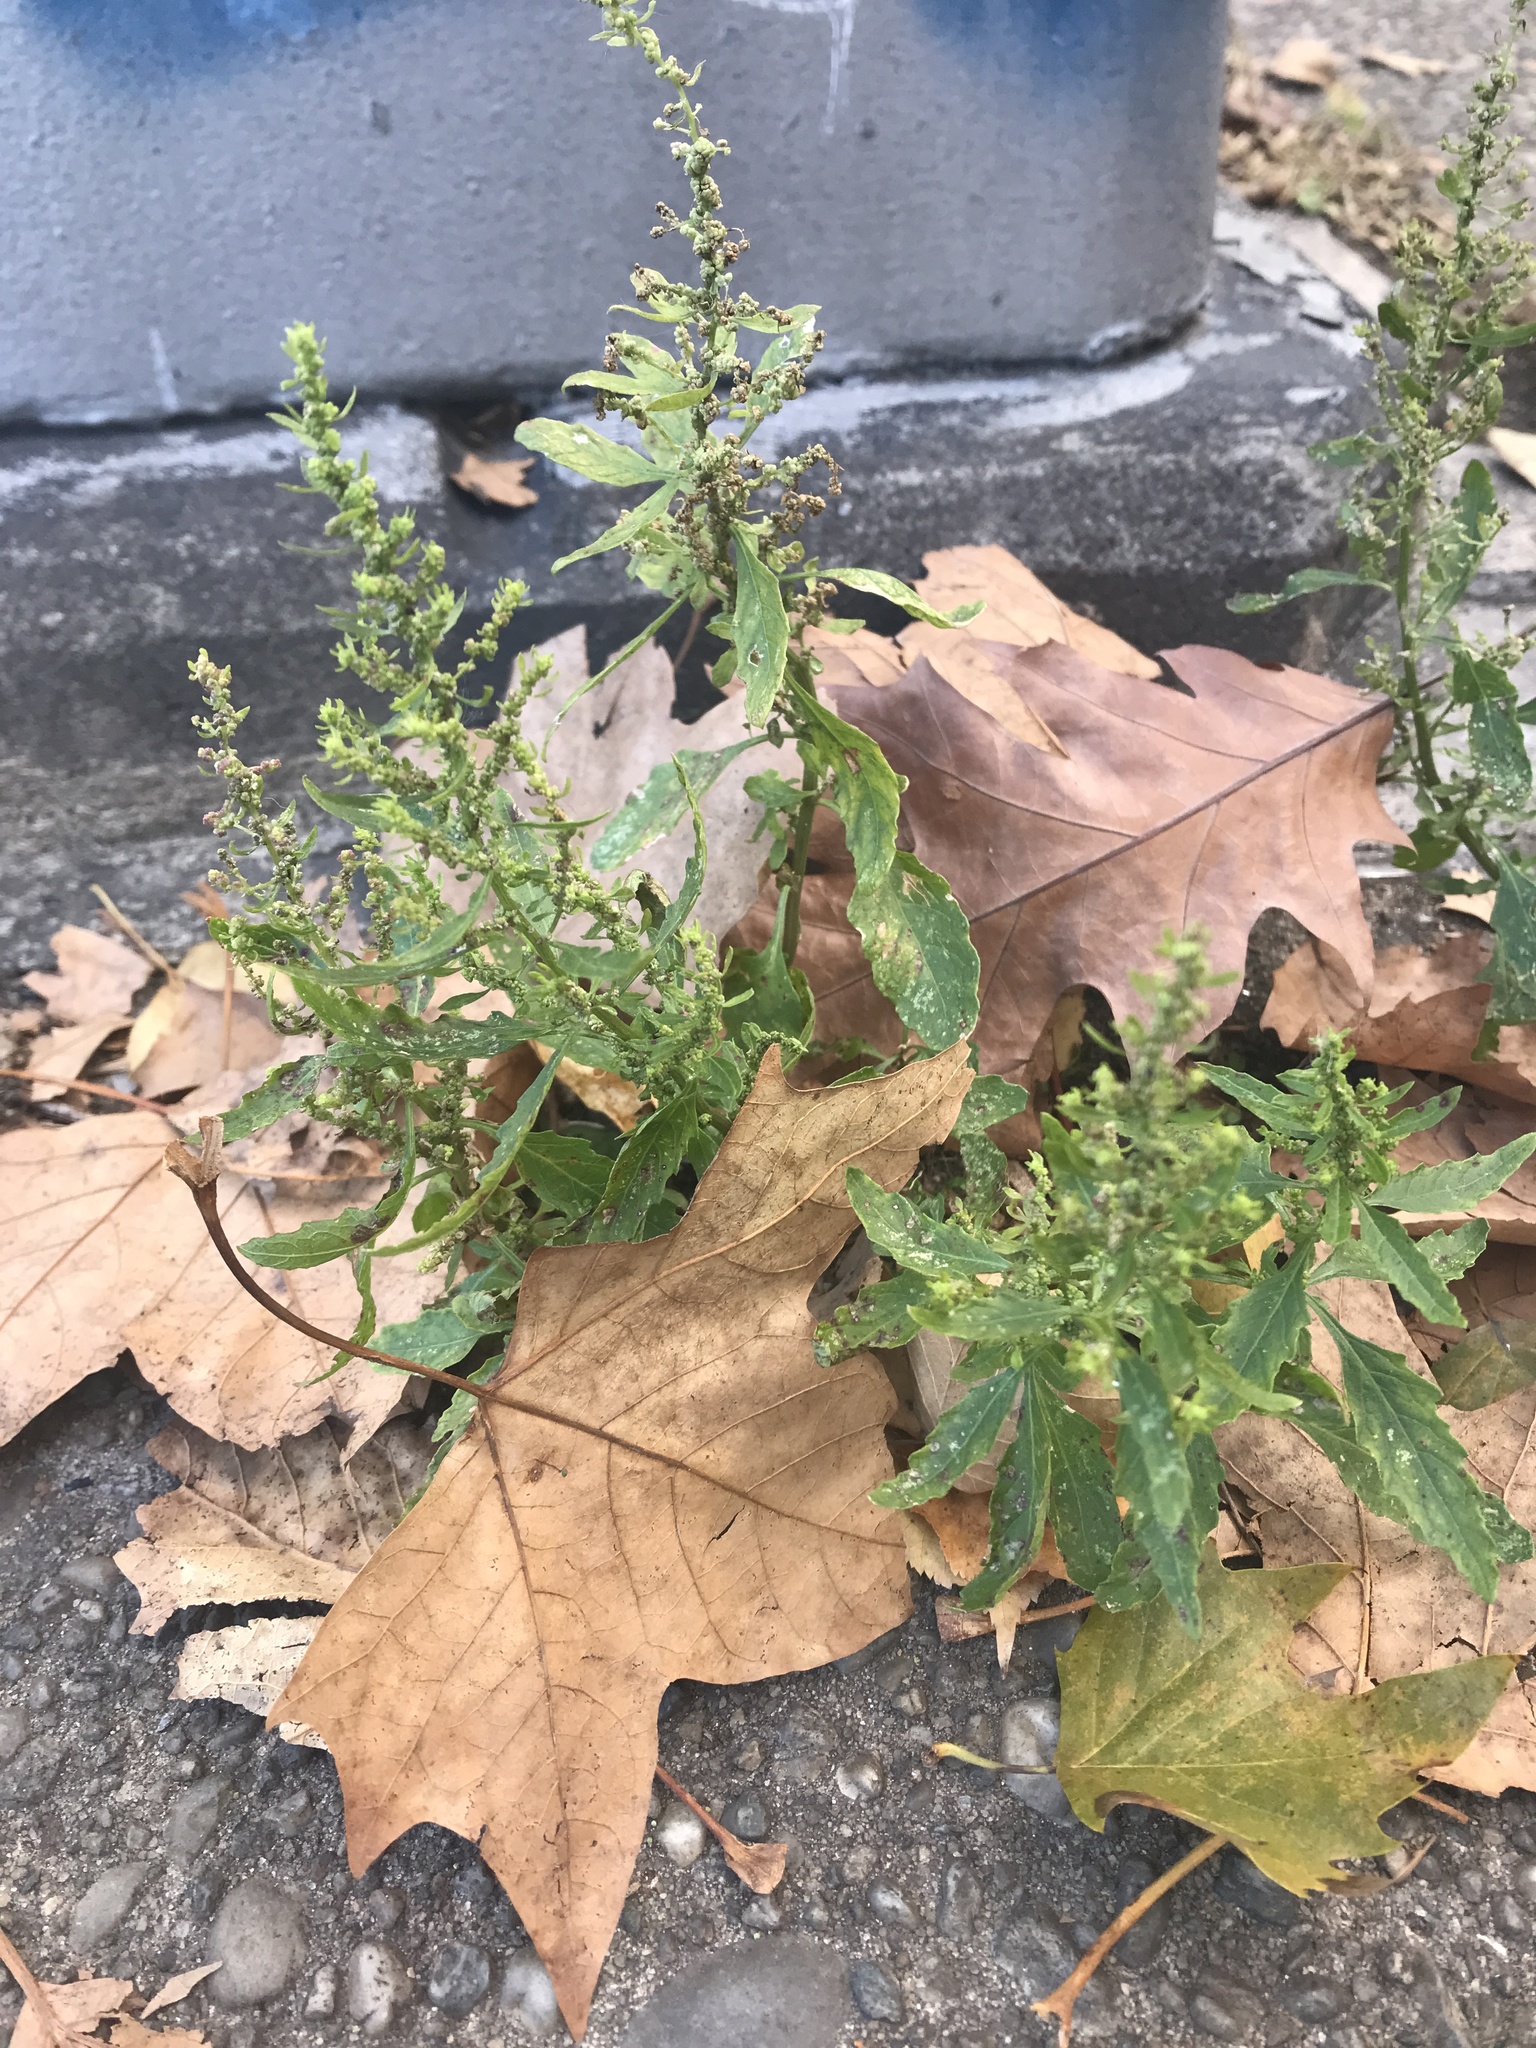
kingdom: Plantae
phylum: Tracheophyta
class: Magnoliopsida
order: Caryophyllales
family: Amaranthaceae
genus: Dysphania
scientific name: Dysphania ambrosioides
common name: Wormseed
